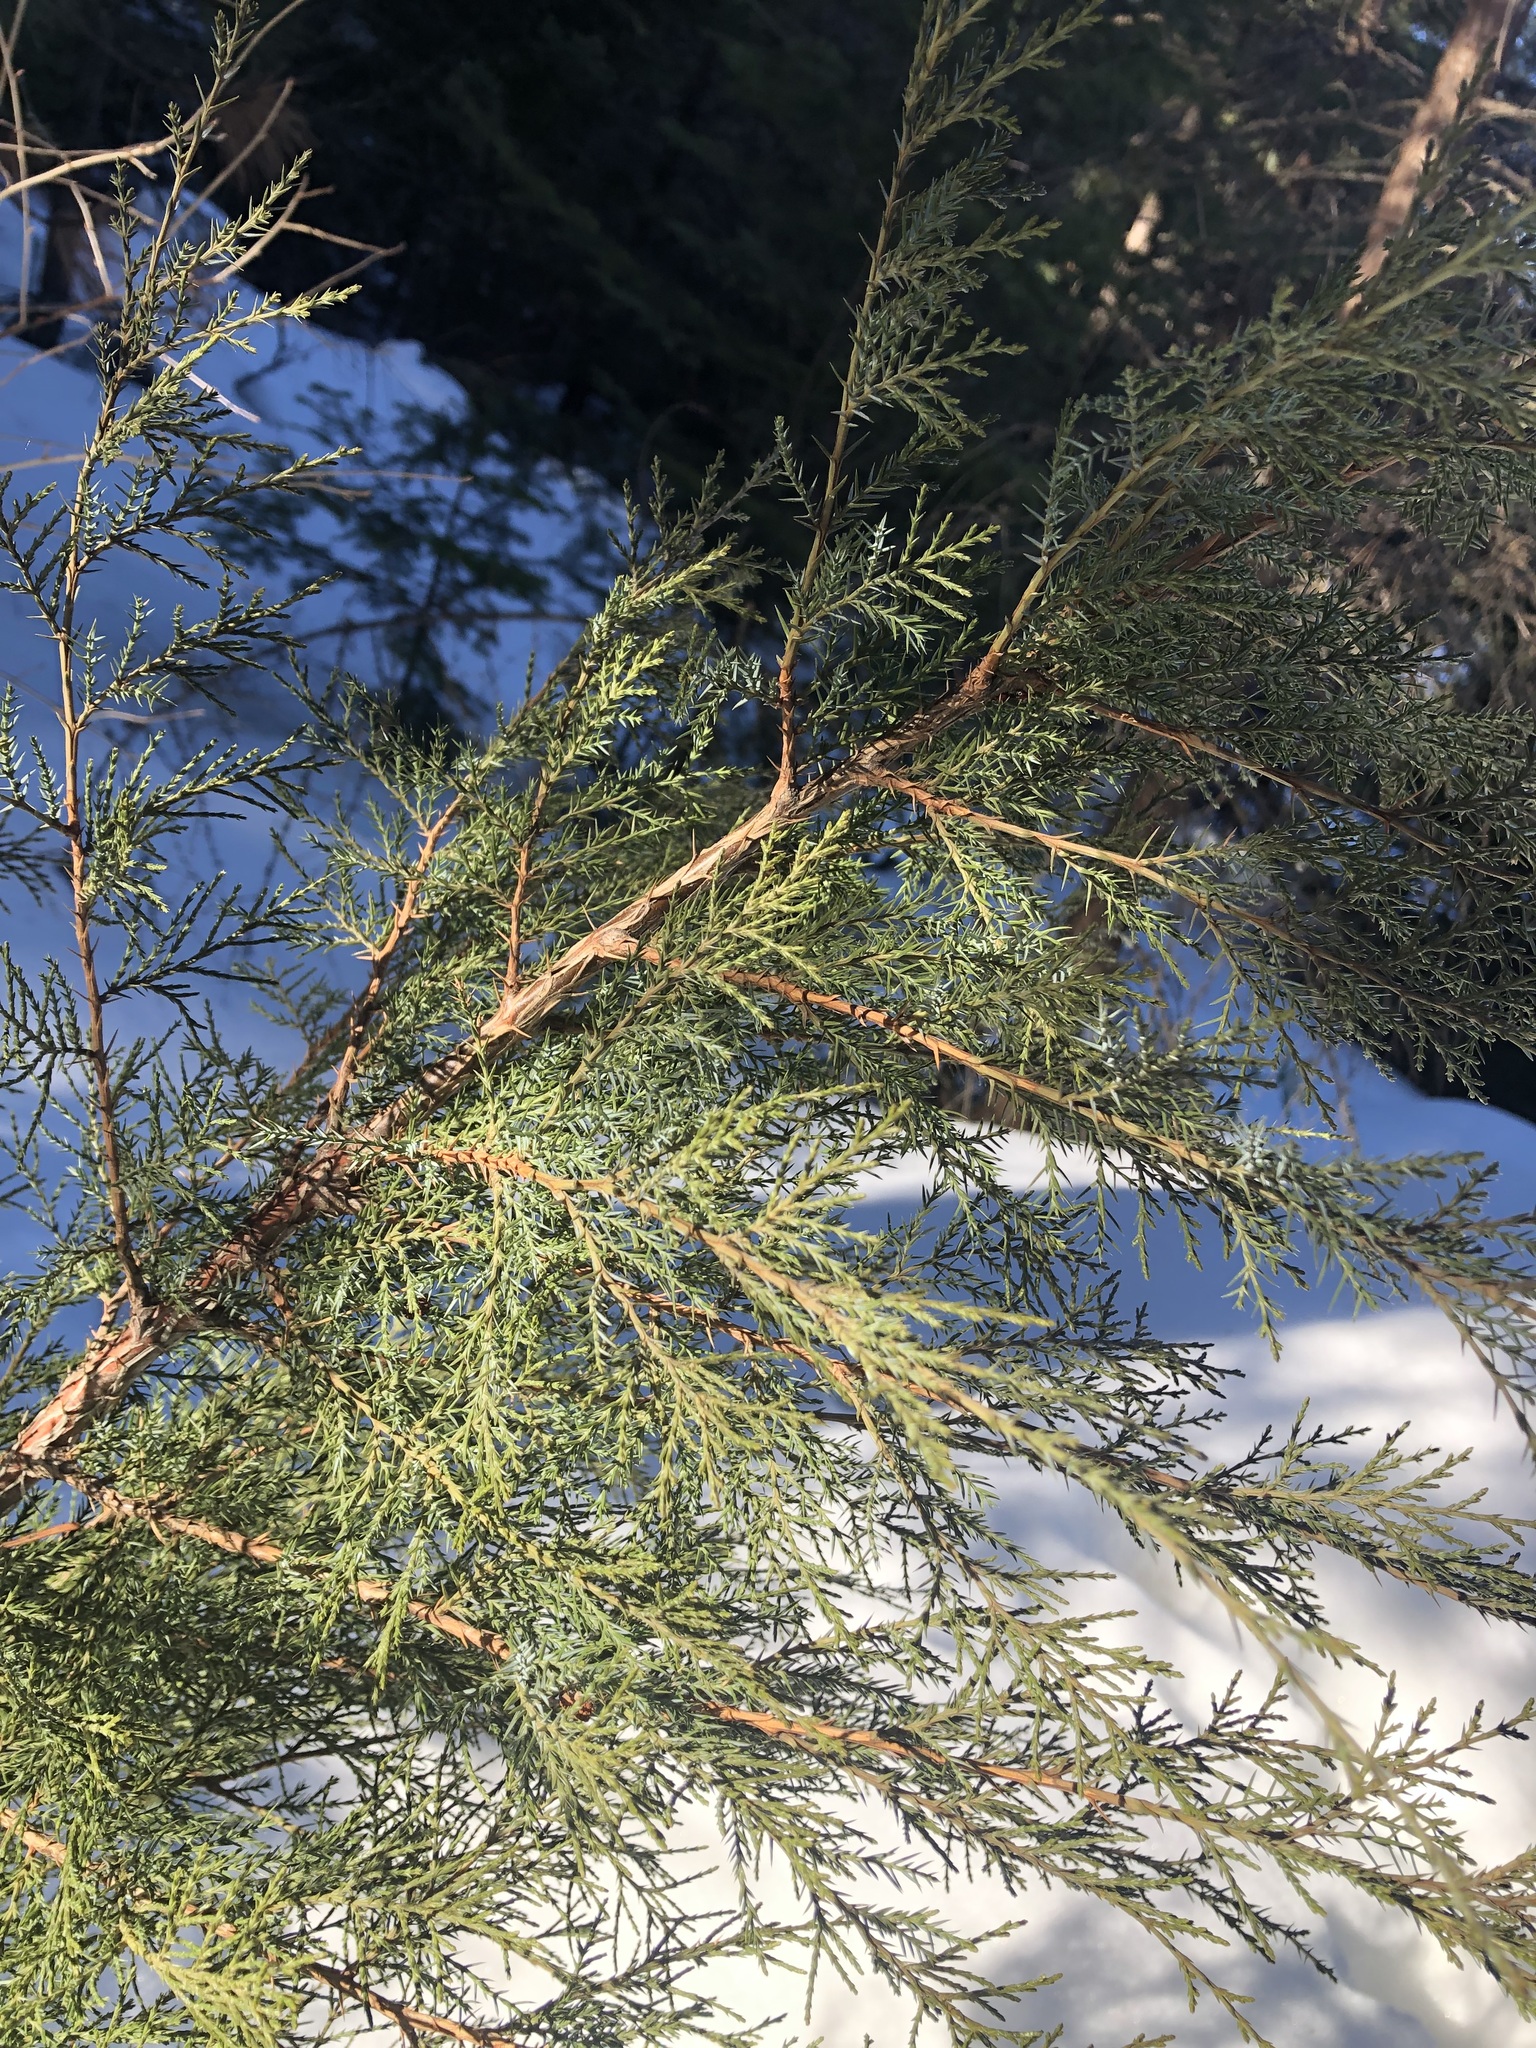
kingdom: Plantae
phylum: Tracheophyta
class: Pinopsida
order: Pinales
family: Cupressaceae
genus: Juniperus
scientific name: Juniperus scopulorum
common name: Rocky mountain juniper
